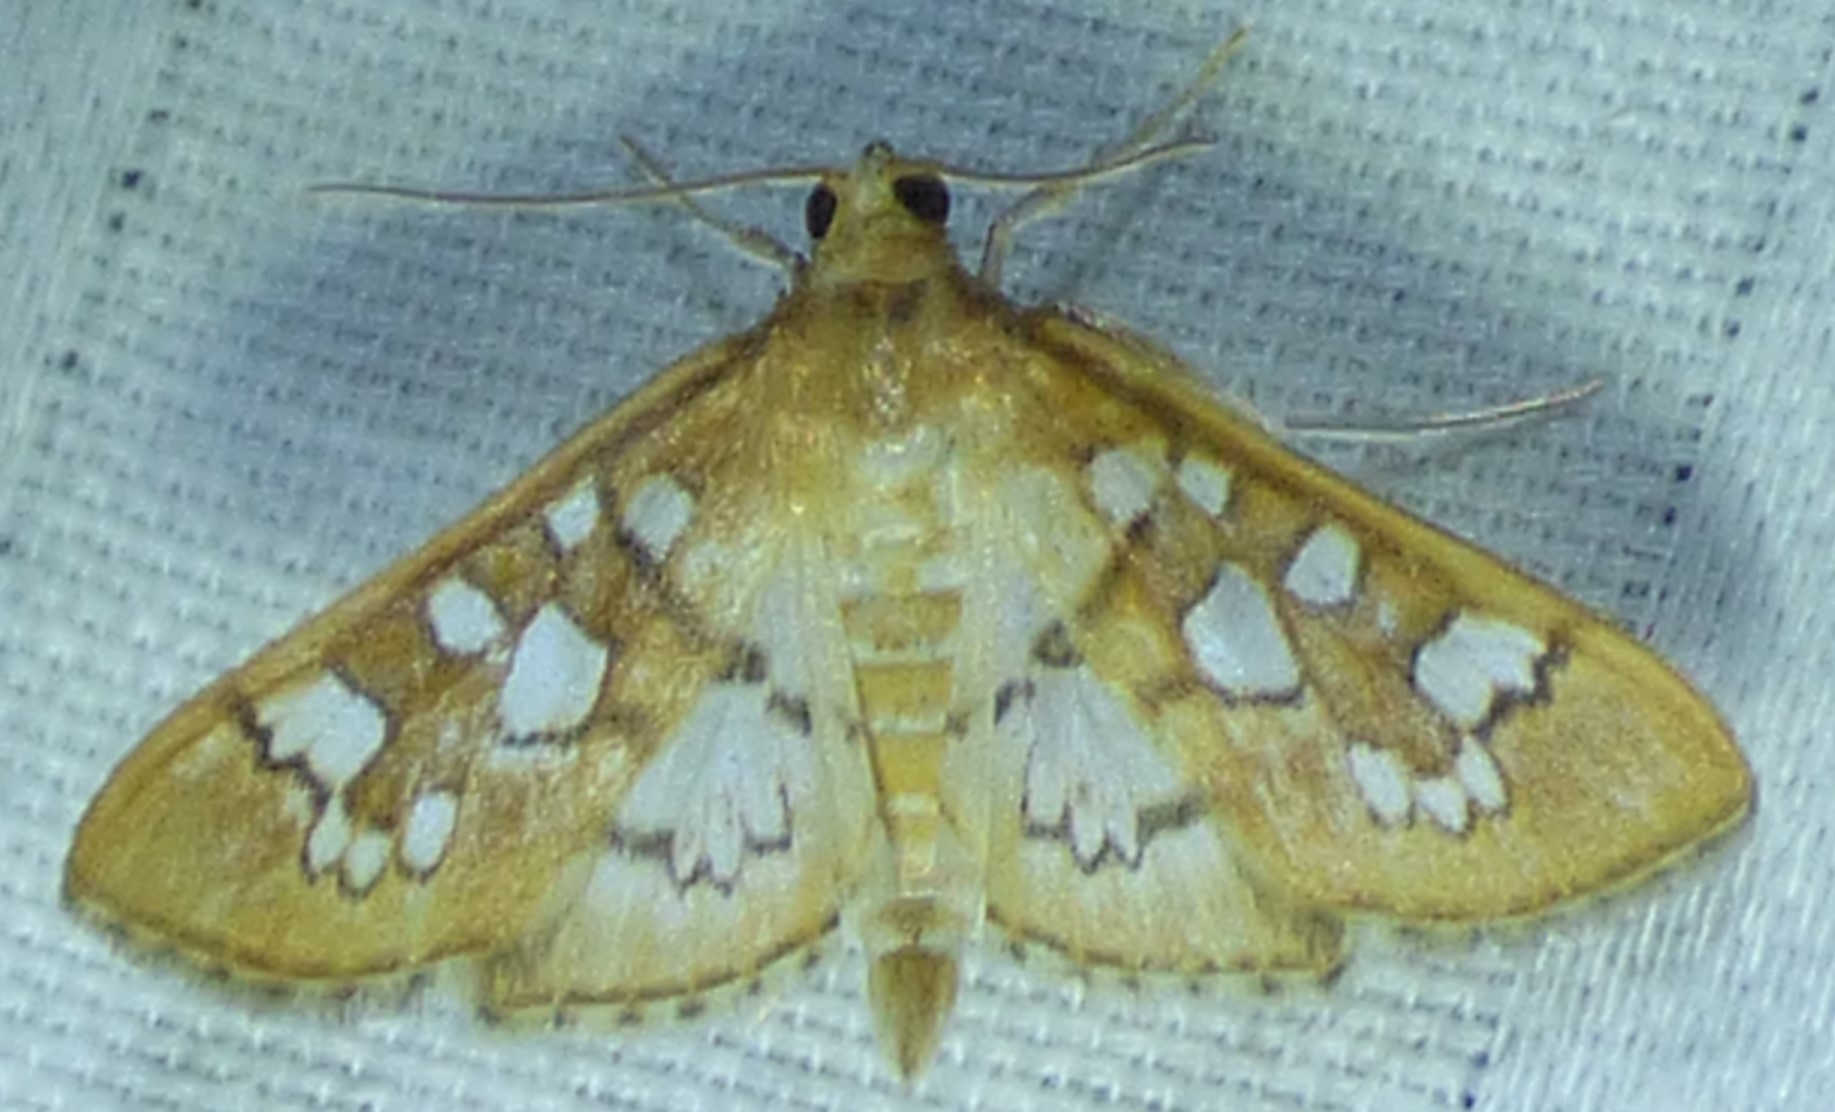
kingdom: Animalia
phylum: Arthropoda
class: Insecta
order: Lepidoptera
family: Crambidae
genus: Samea
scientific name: Samea baccatalis
